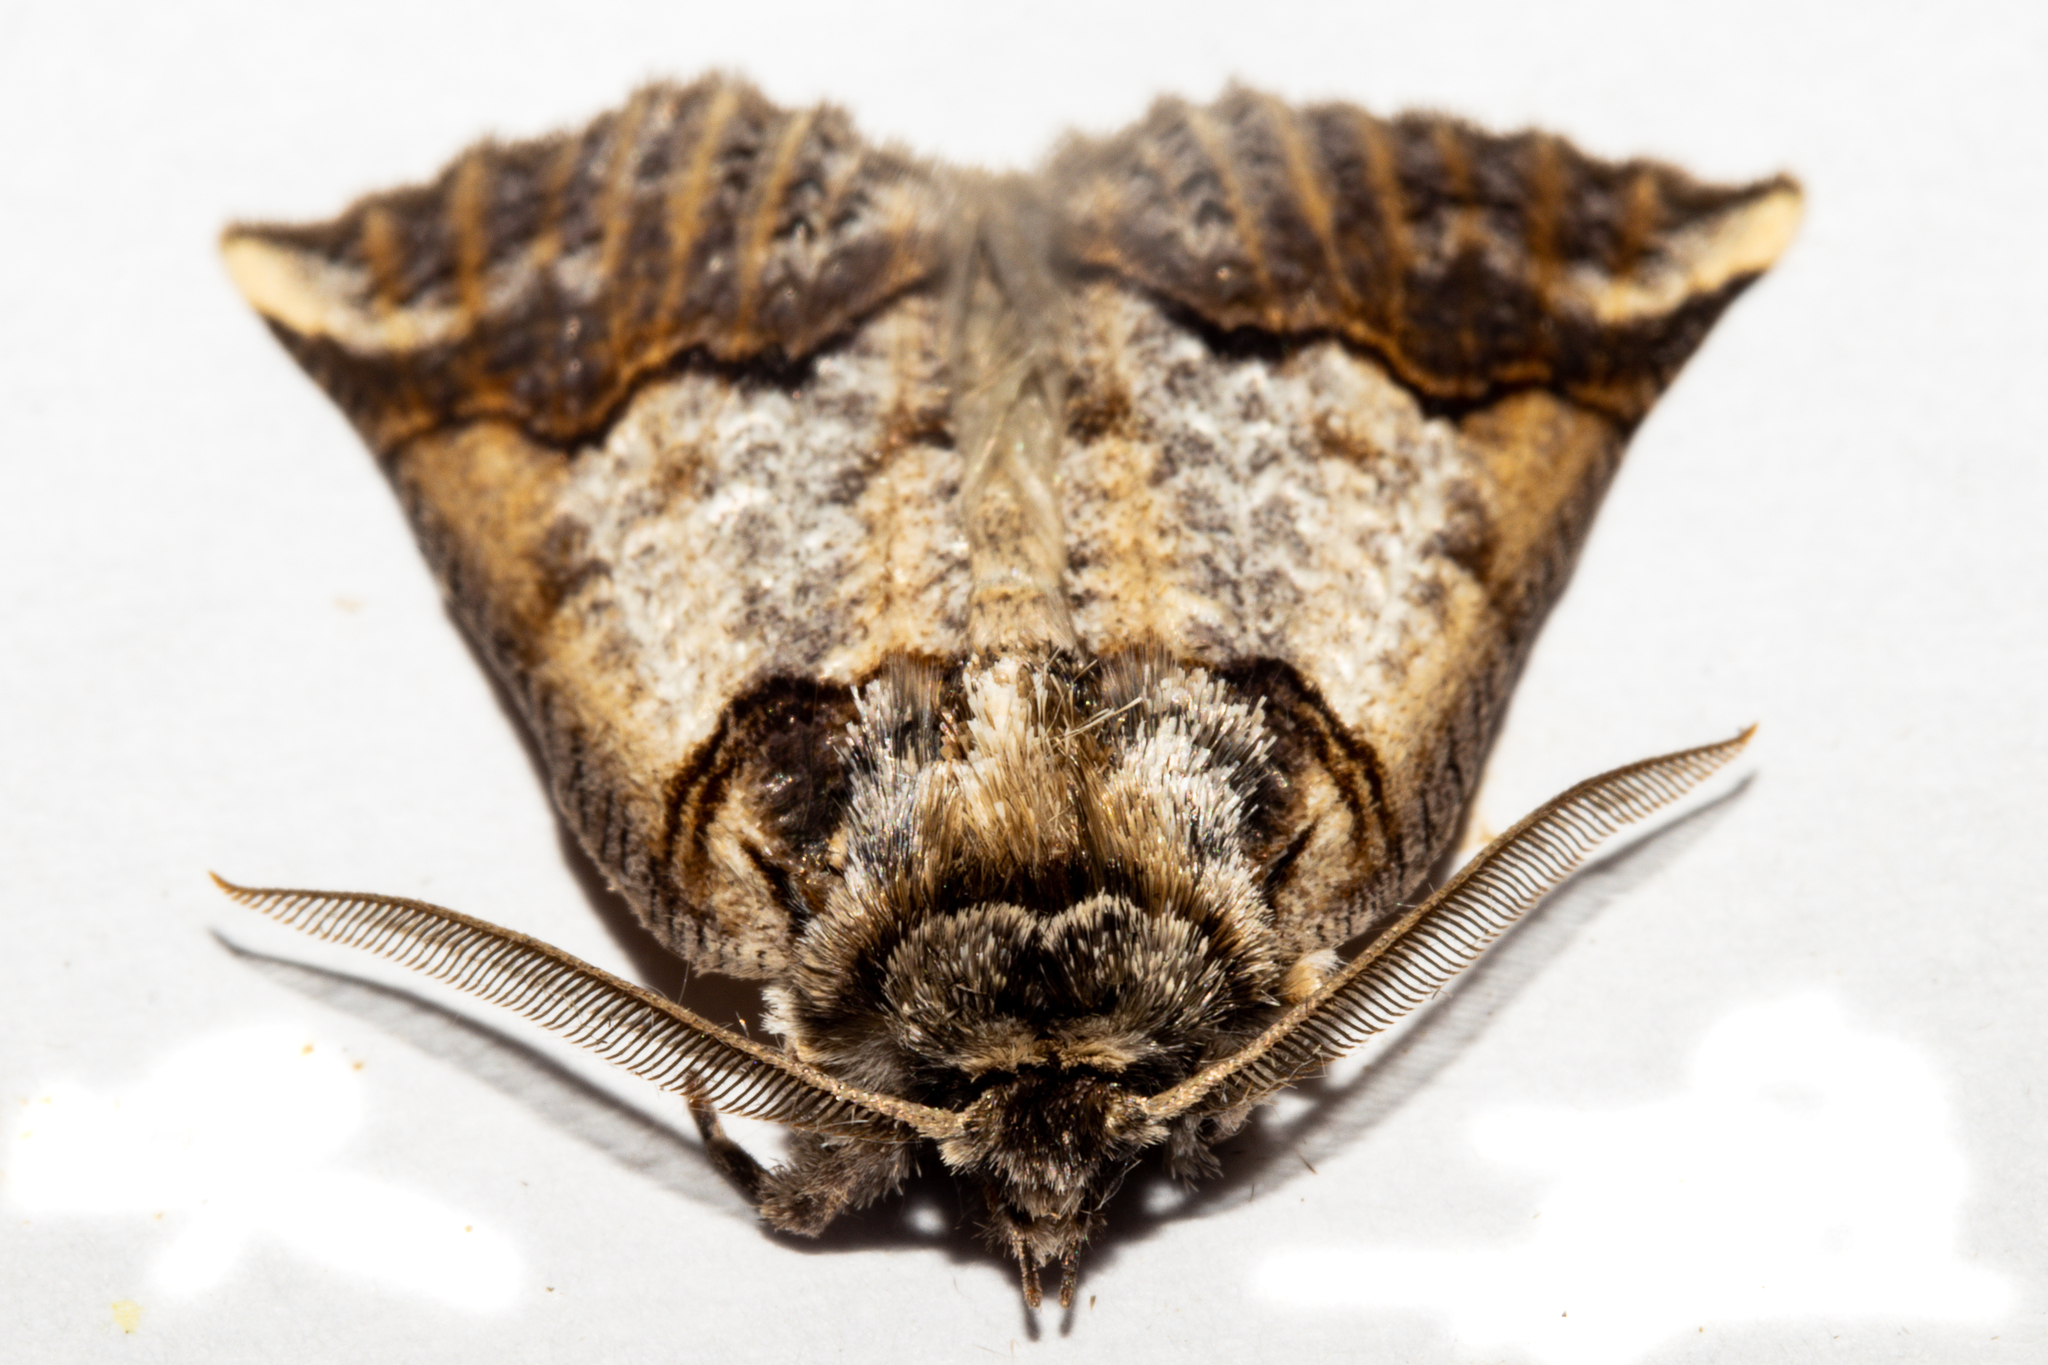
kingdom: Animalia
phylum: Arthropoda
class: Insecta
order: Lepidoptera
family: Geometridae
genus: Declana
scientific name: Declana
